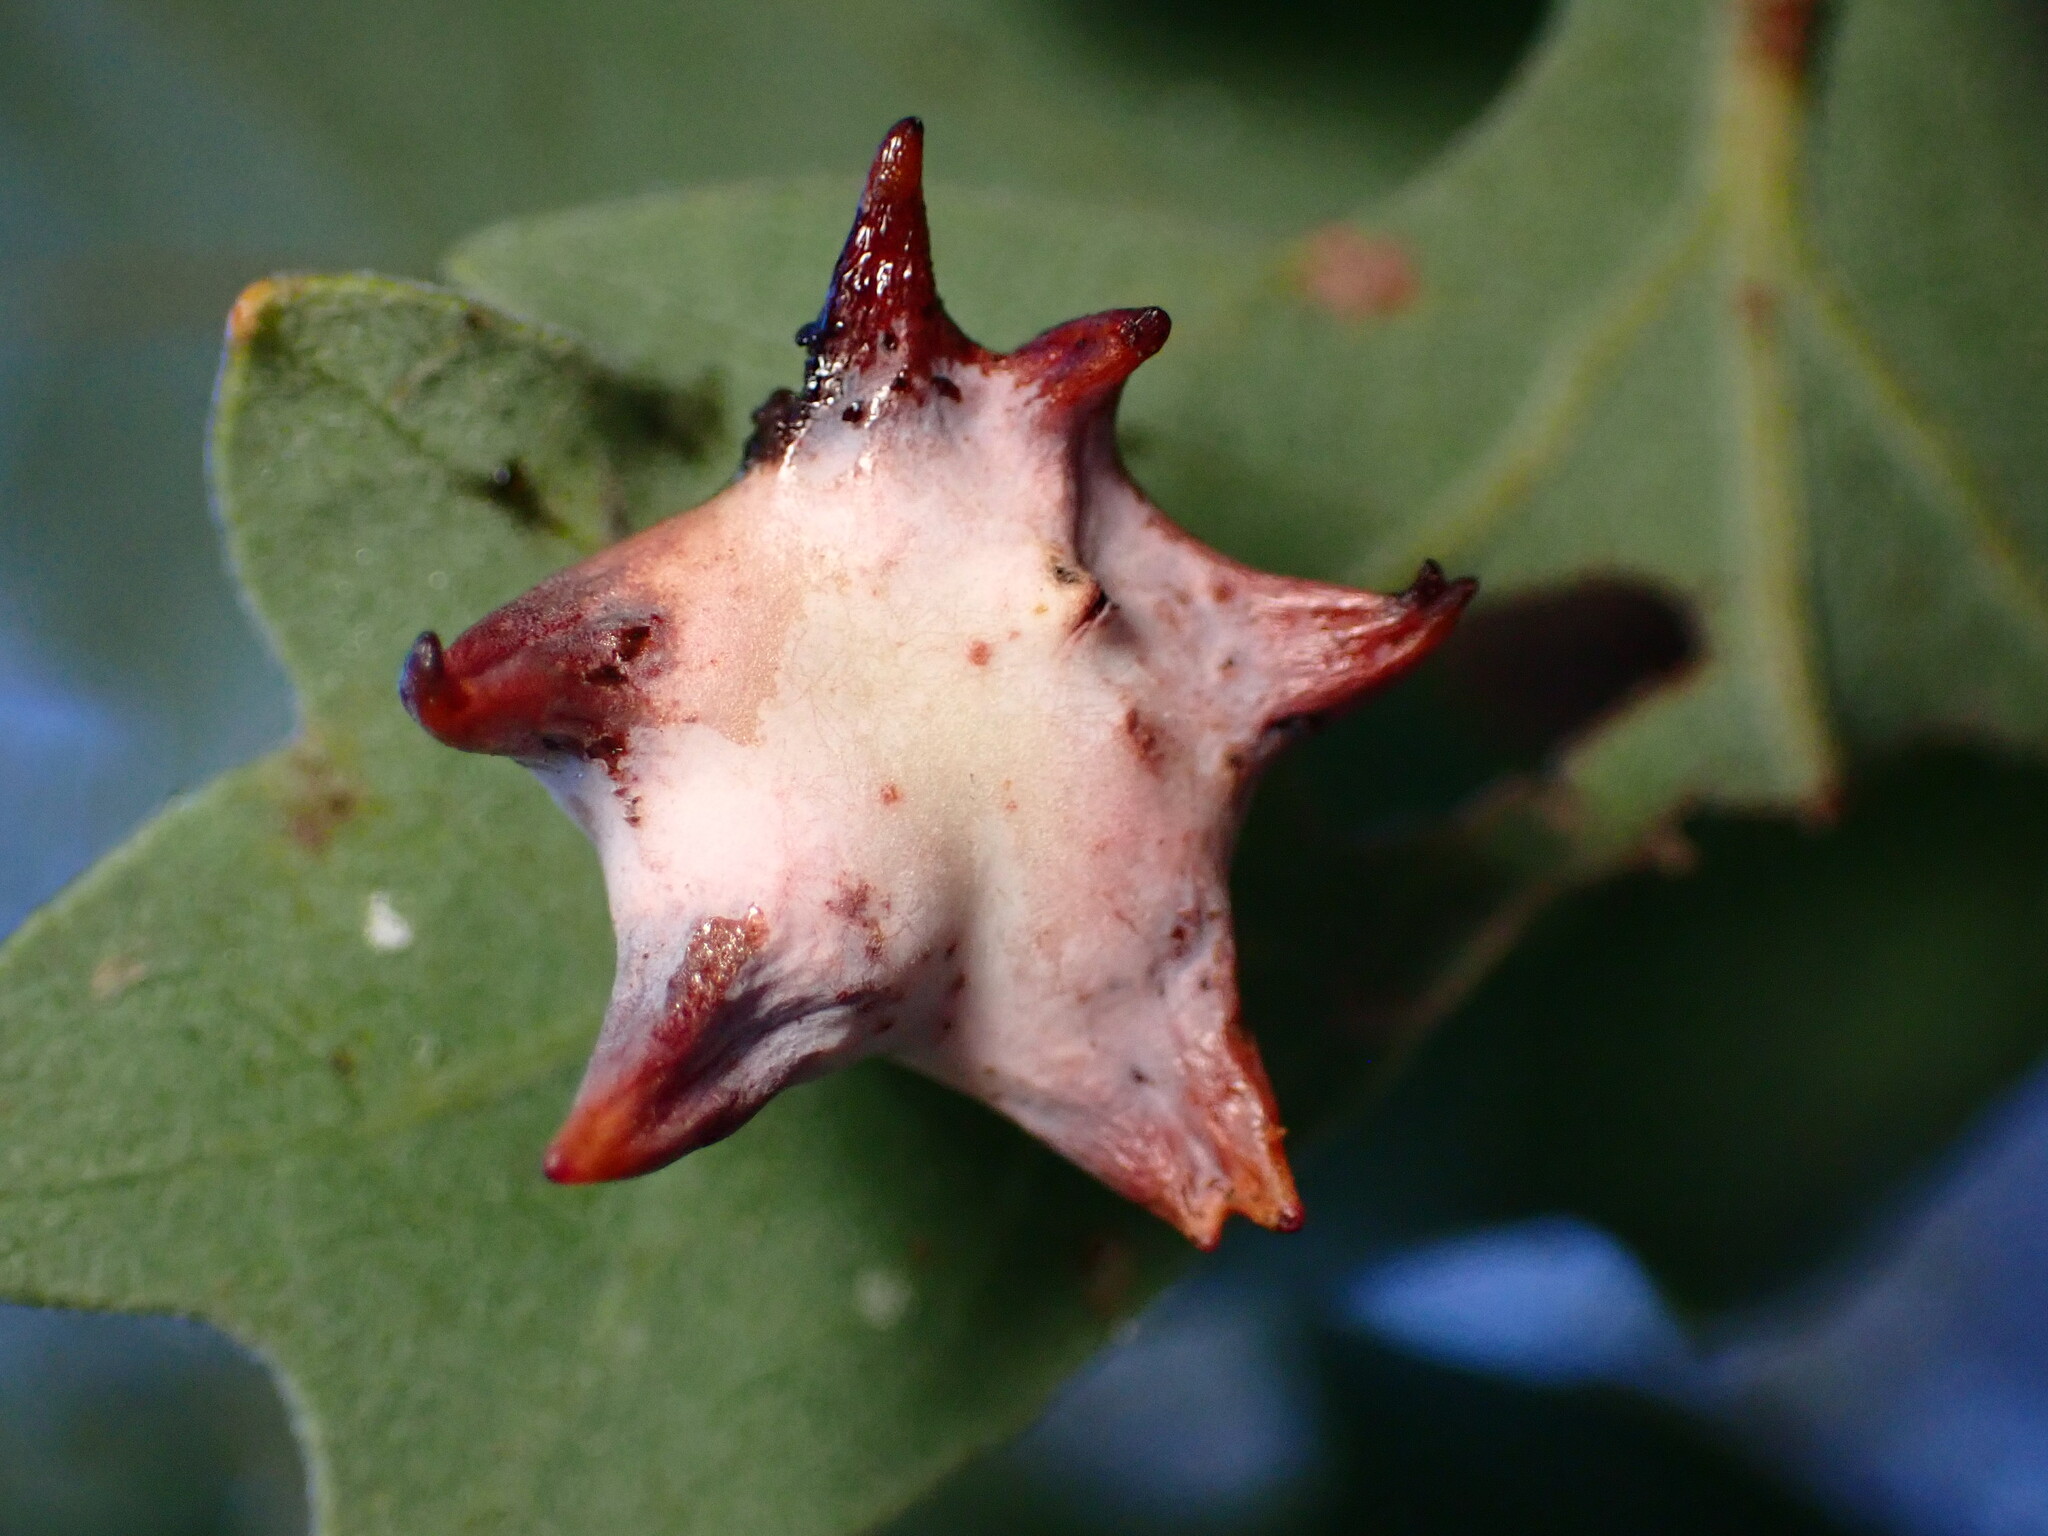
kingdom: Animalia
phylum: Arthropoda
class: Insecta
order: Hymenoptera
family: Cynipidae
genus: Cynips
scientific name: Cynips douglasi
